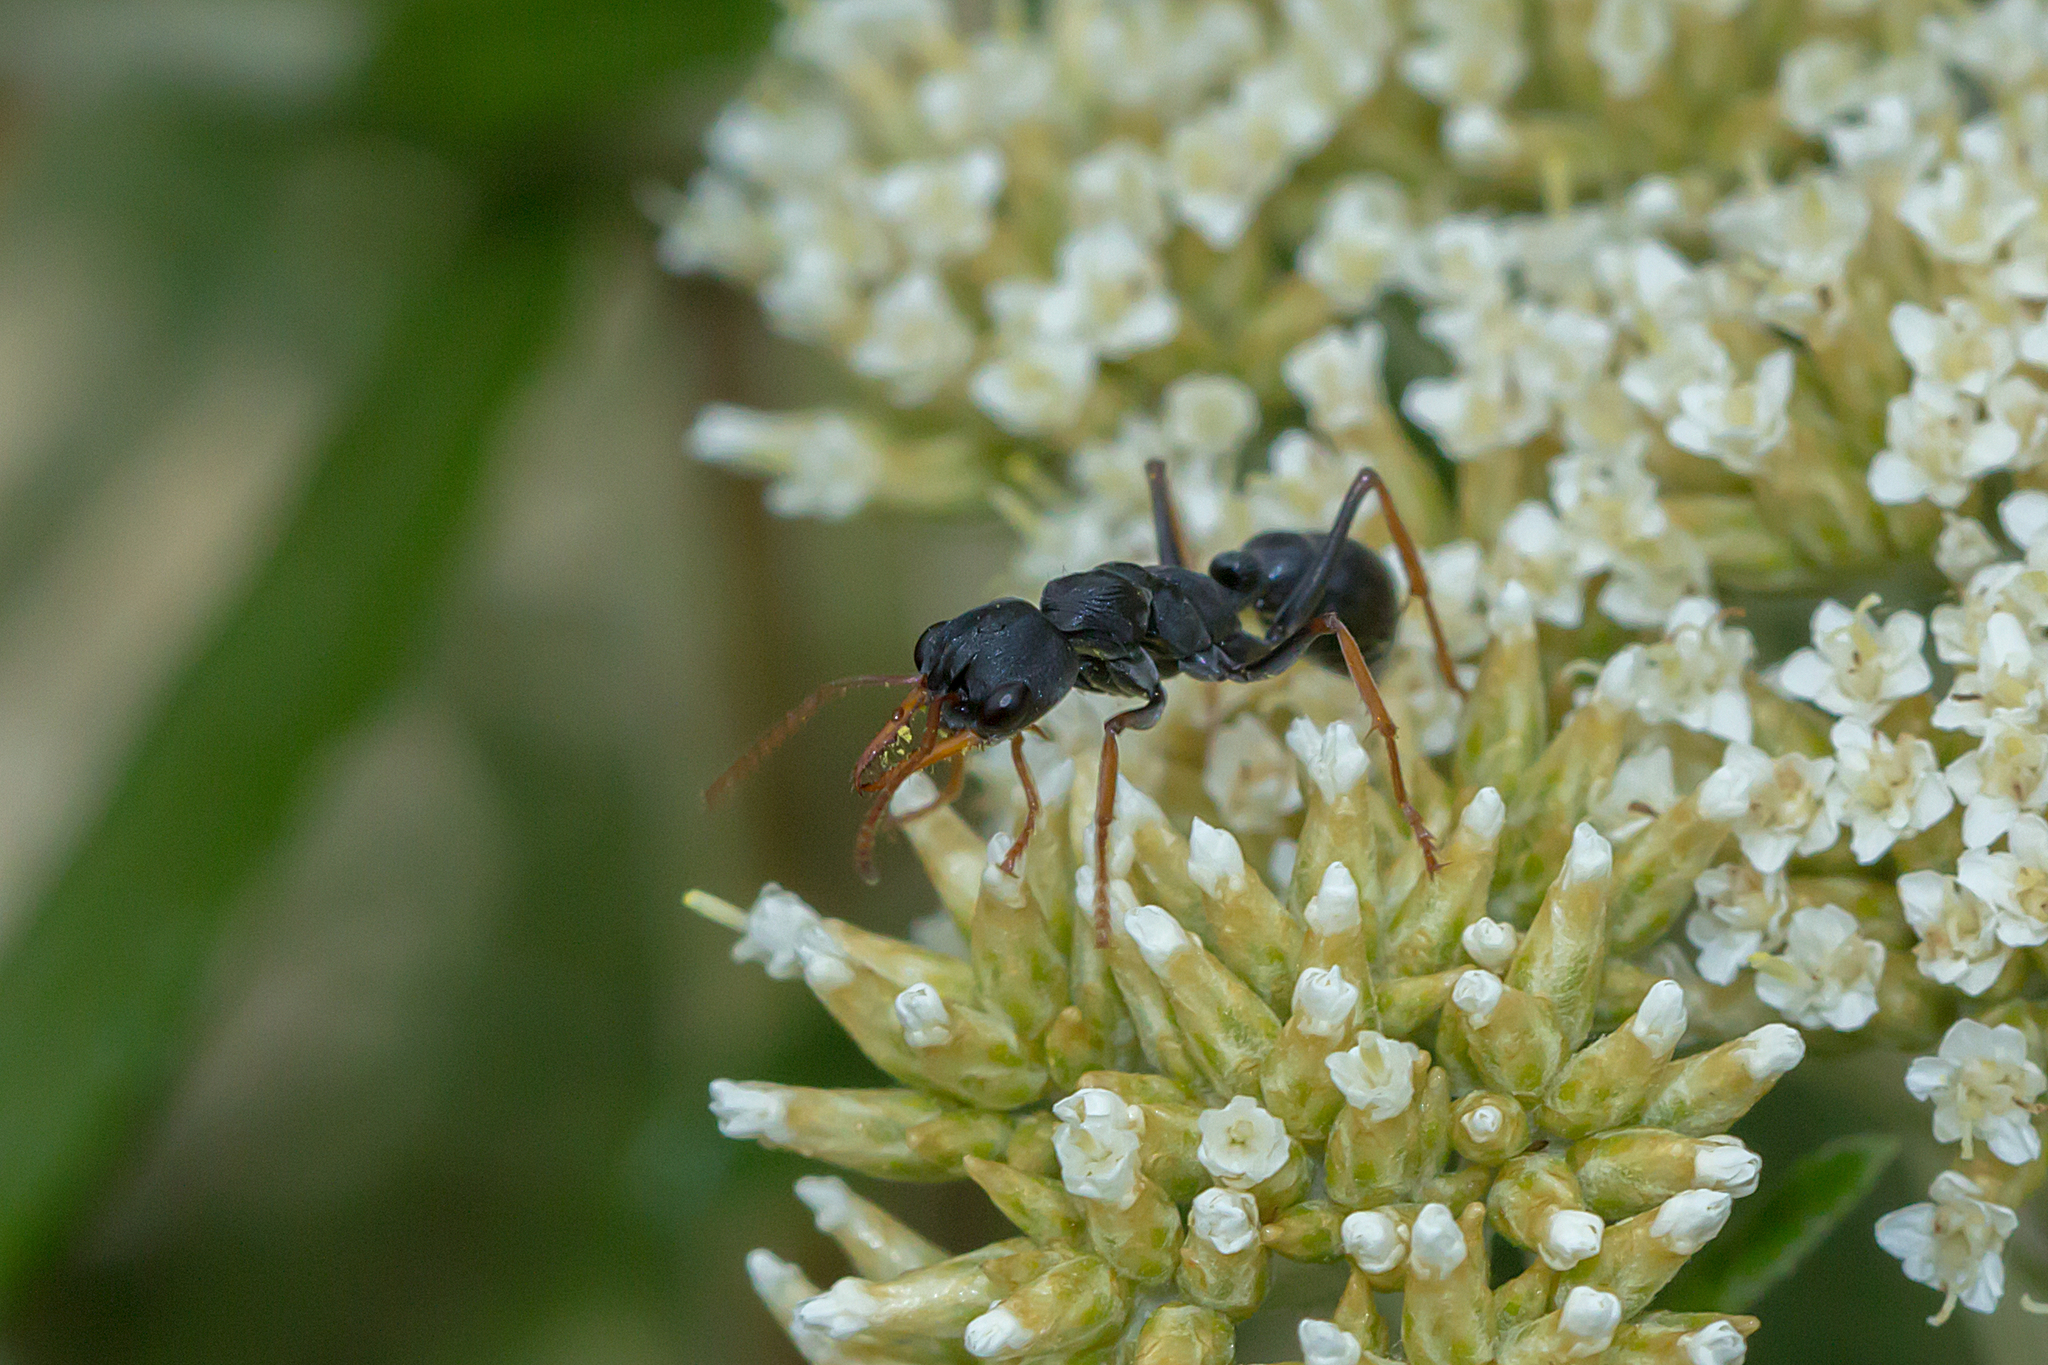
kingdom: Animalia
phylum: Arthropoda
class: Insecta
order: Hymenoptera
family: Formicidae
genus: Myrmecia
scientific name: Myrmecia pilosula
